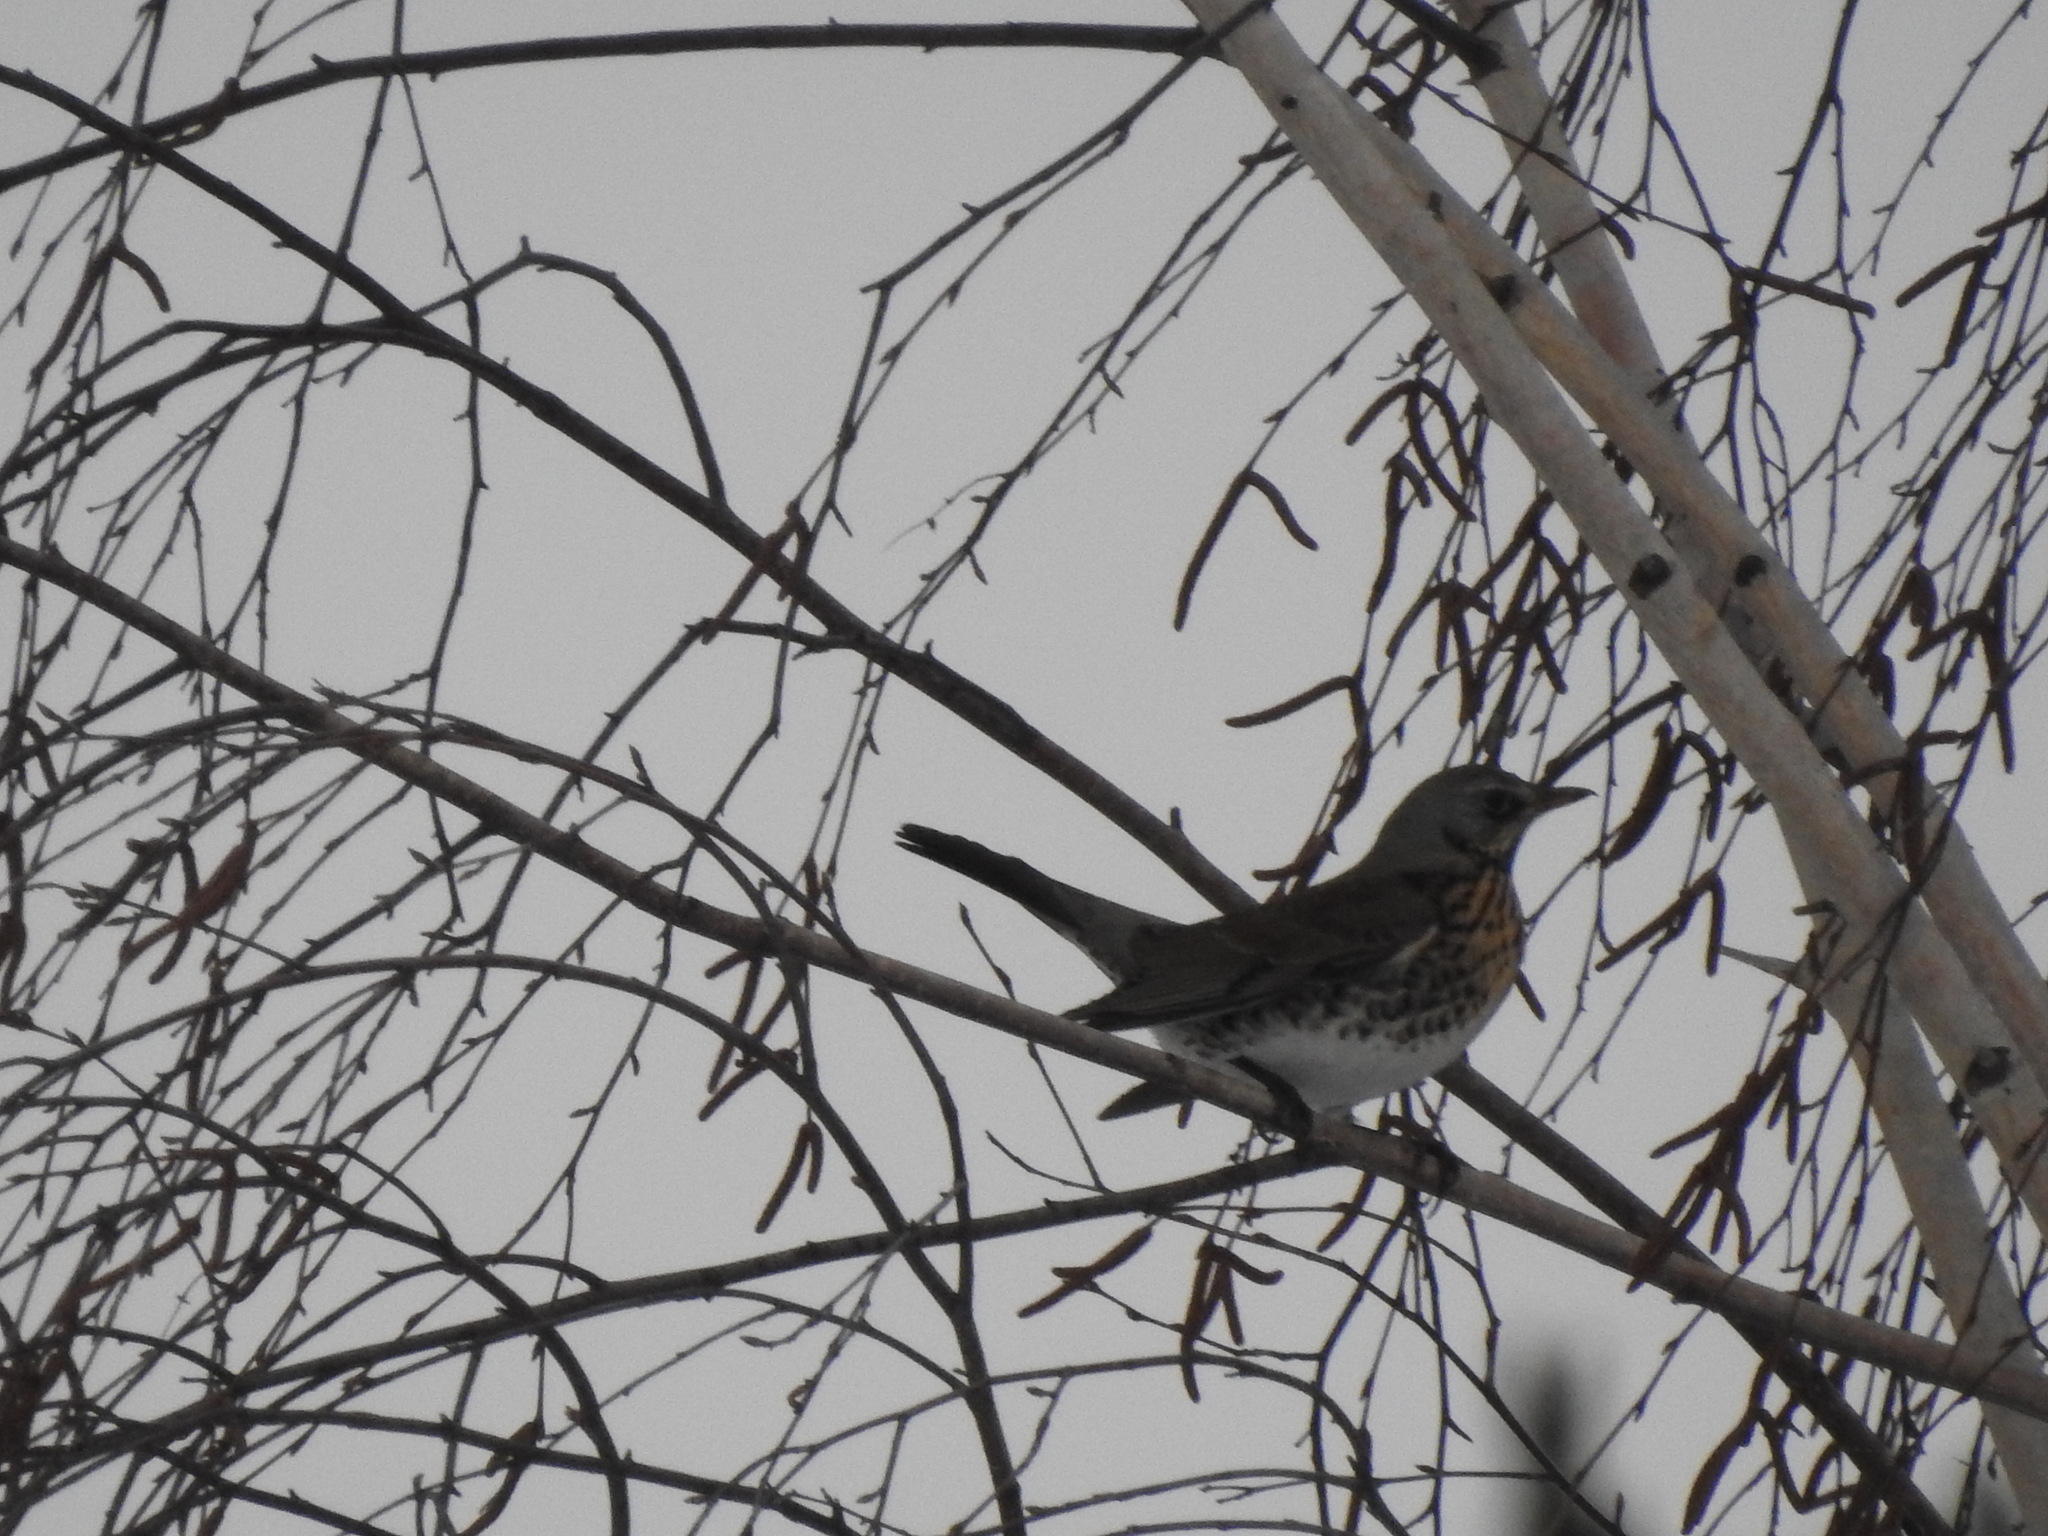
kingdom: Animalia
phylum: Chordata
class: Aves
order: Passeriformes
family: Turdidae
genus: Turdus
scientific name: Turdus pilaris
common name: Fieldfare
